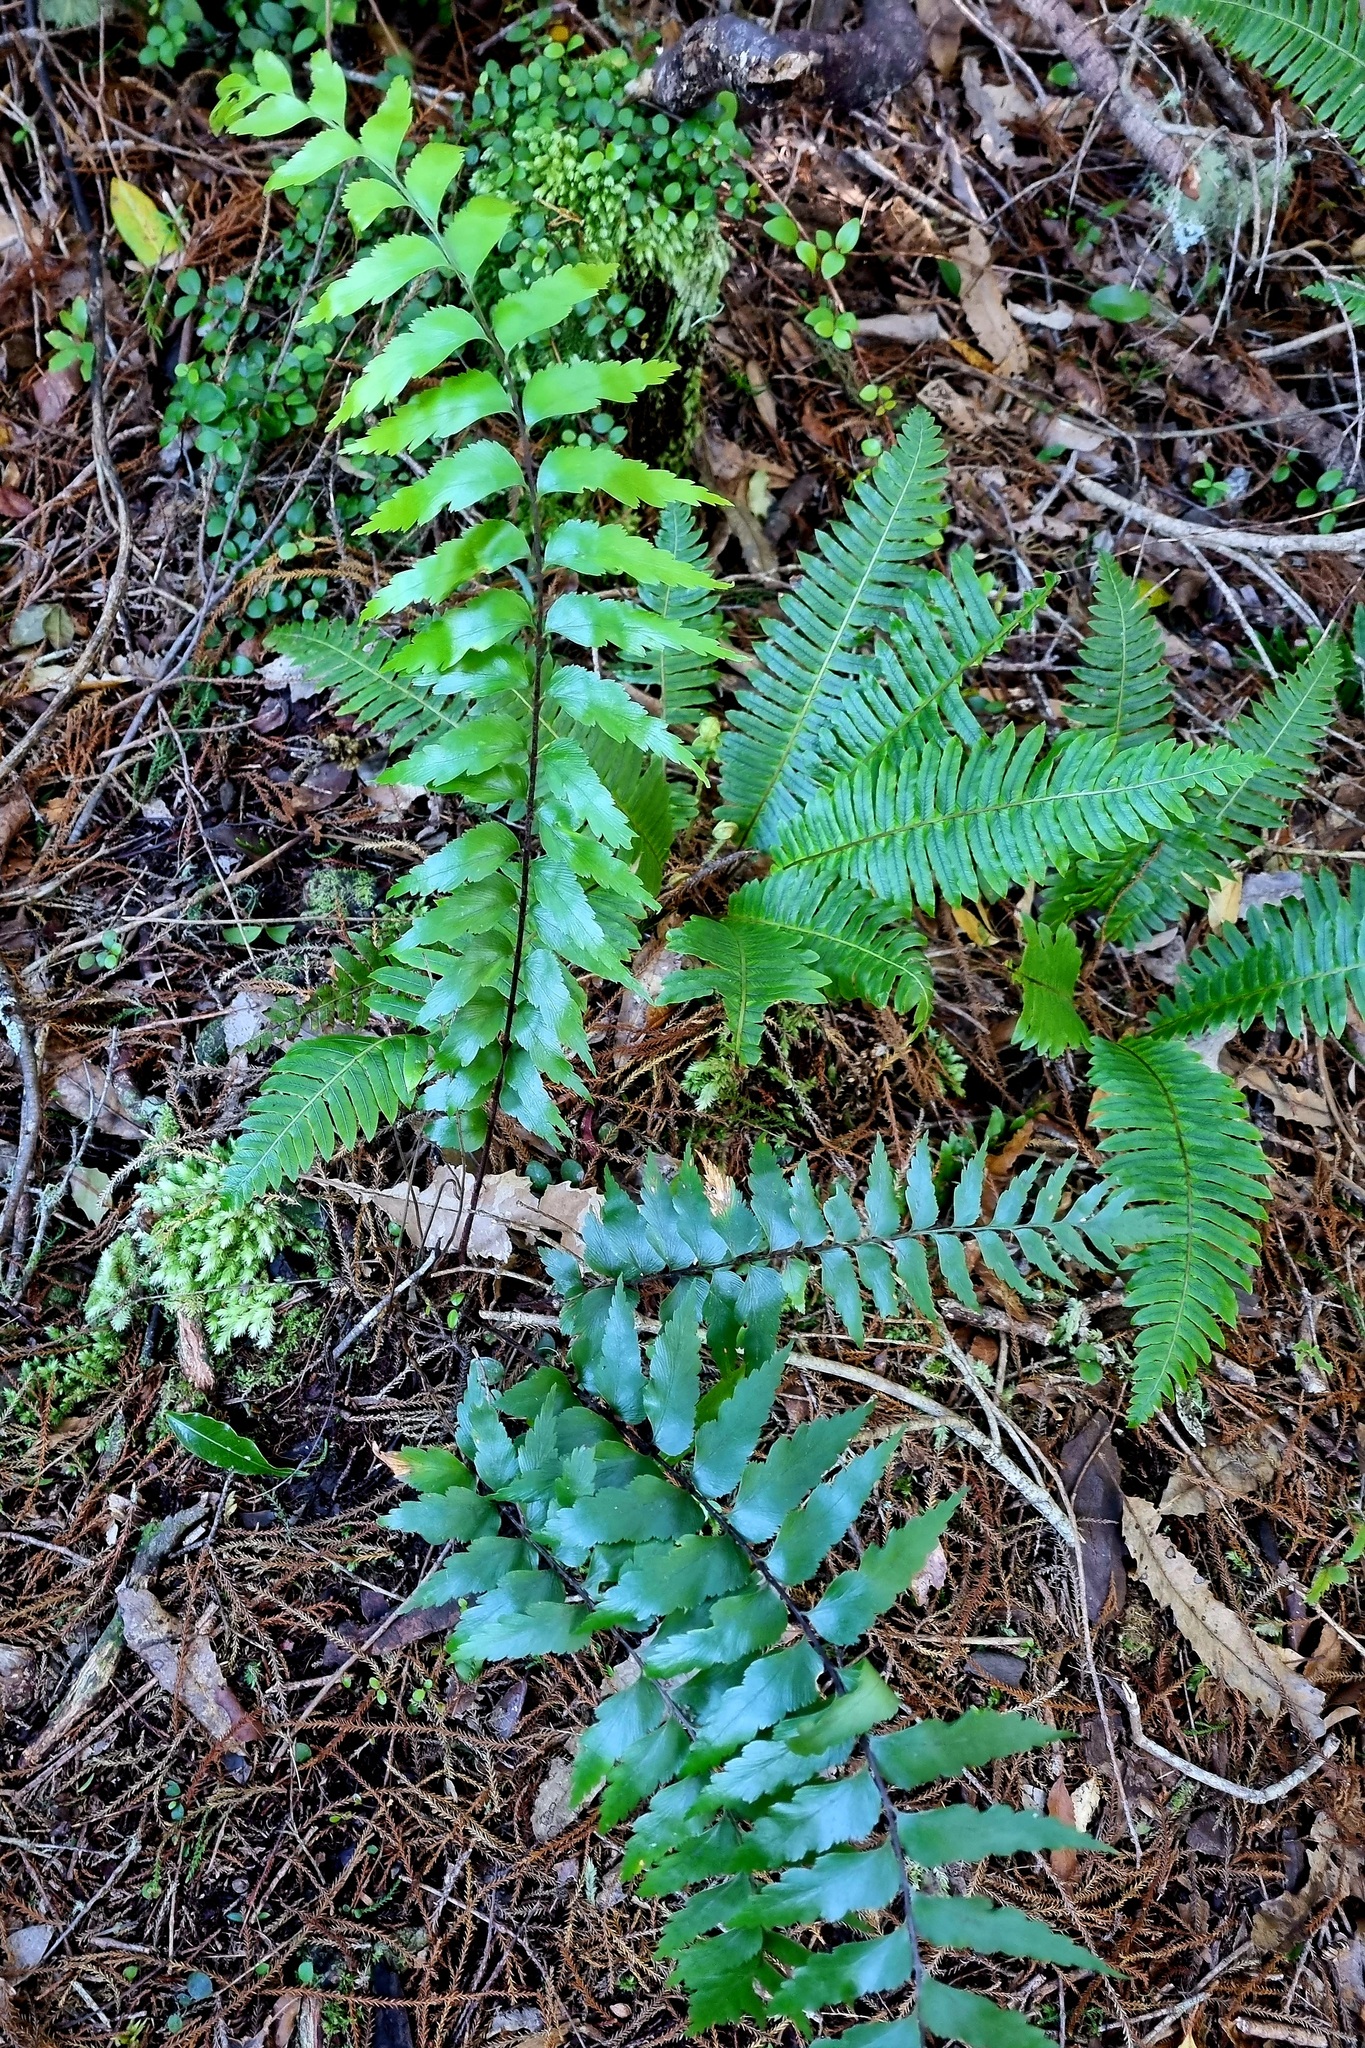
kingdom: Plantae
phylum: Tracheophyta
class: Polypodiopsida
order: Polypodiales
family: Aspleniaceae
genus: Asplenium
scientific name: Asplenium polyodon
